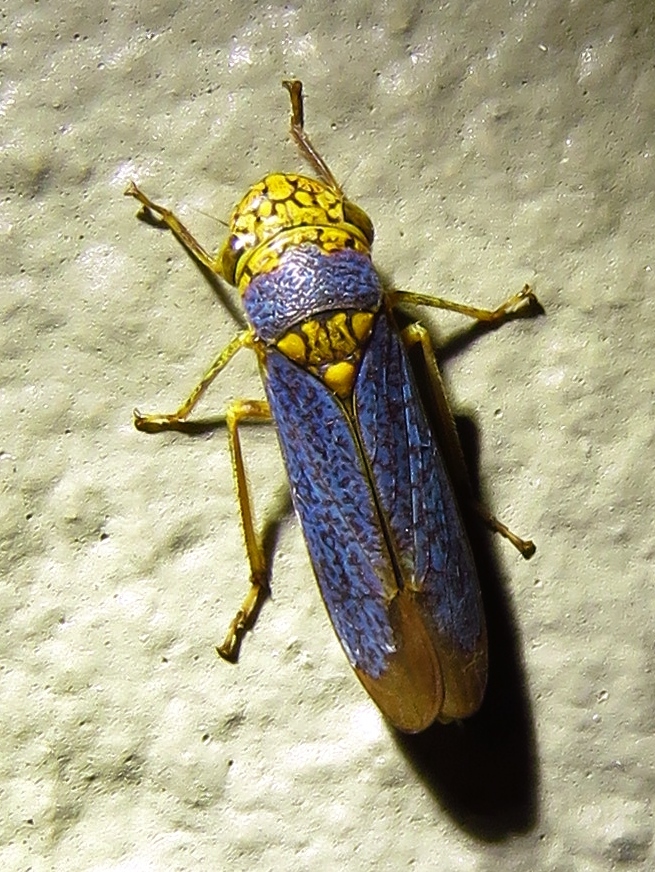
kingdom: Animalia
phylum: Arthropoda
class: Insecta
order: Hemiptera
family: Cicadellidae
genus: Oncometopia
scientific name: Oncometopia orbona
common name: Broad-headed sharpshooter
